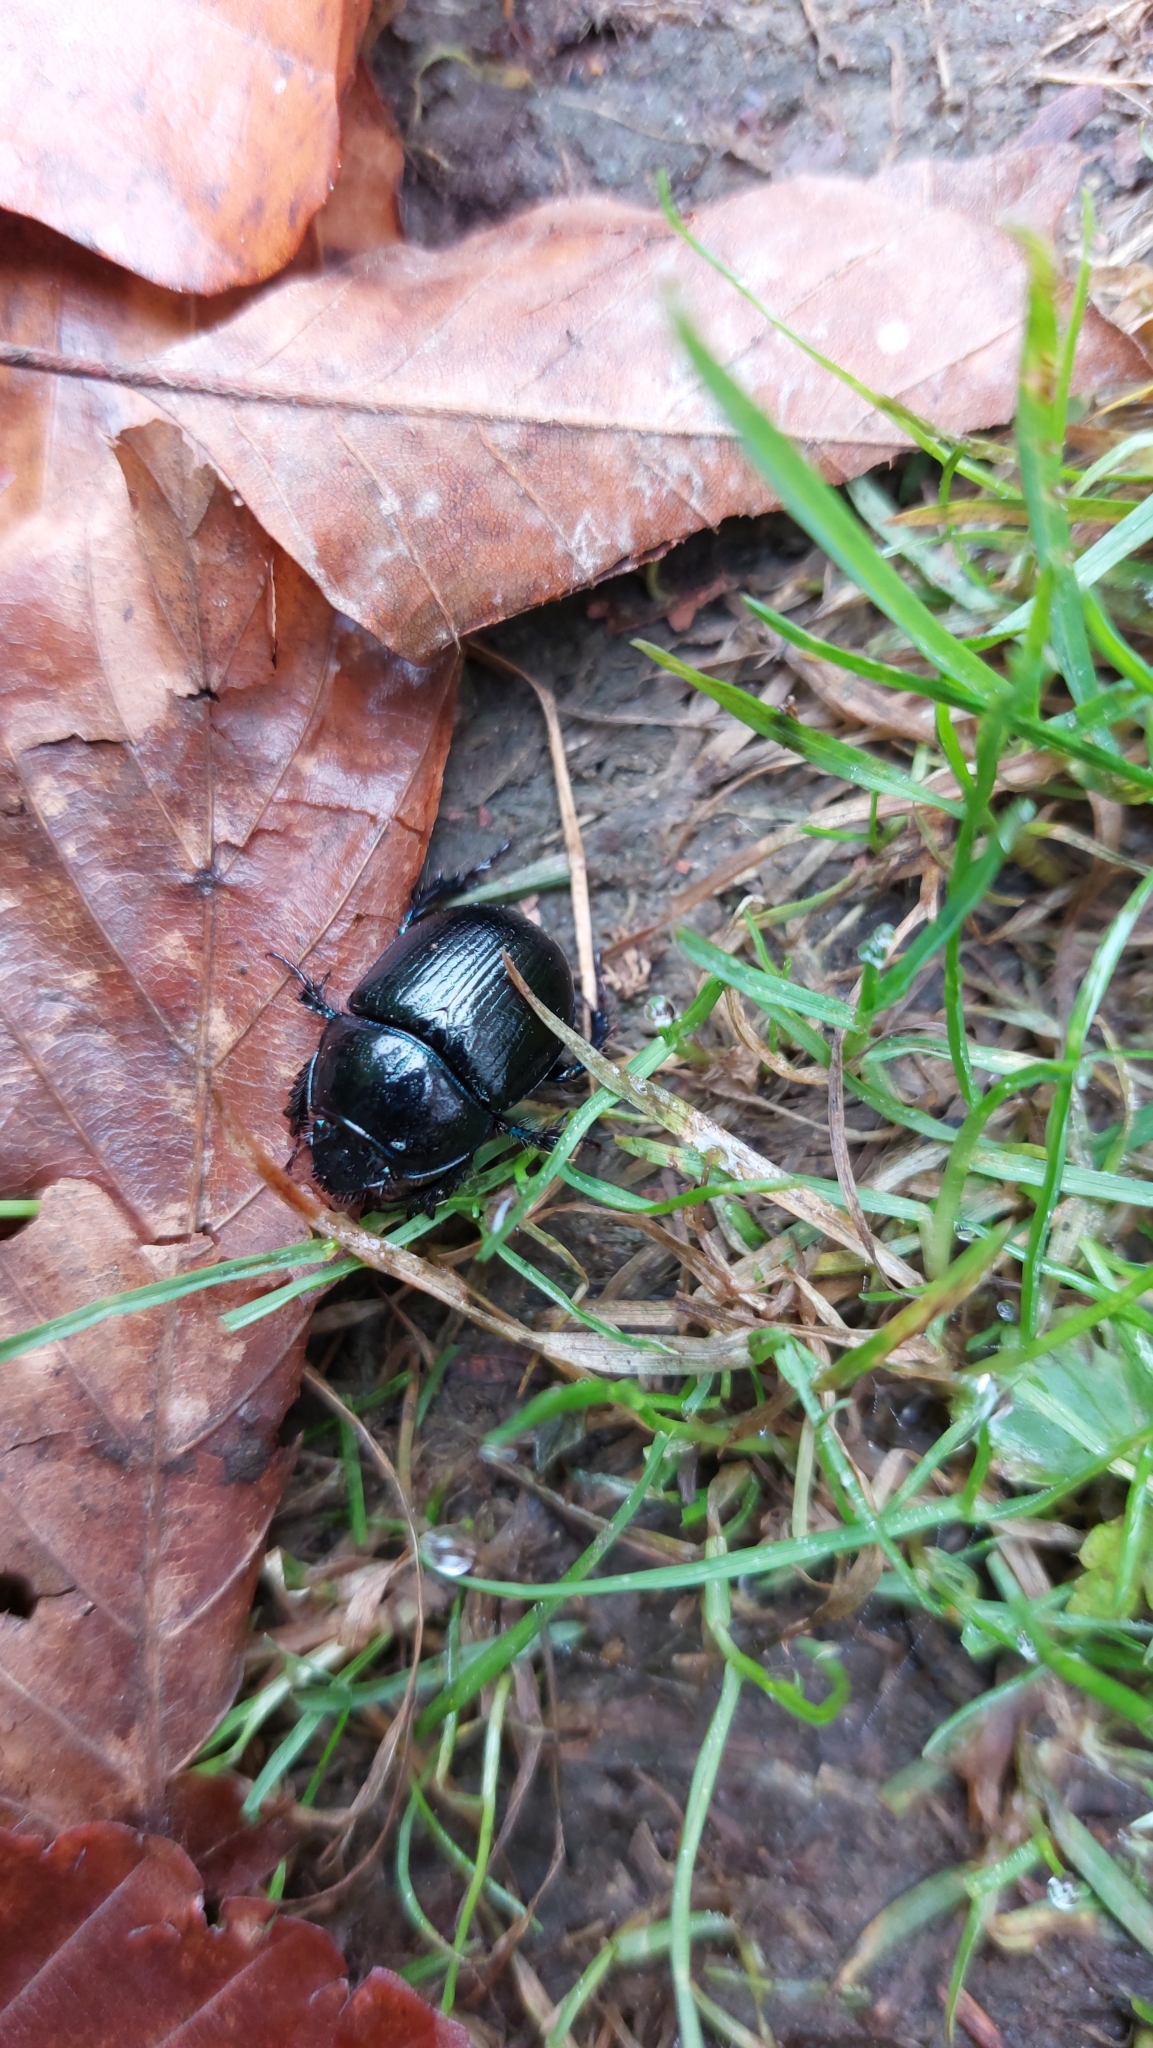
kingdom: Animalia
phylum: Arthropoda
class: Insecta
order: Coleoptera
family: Geotrupidae
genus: Anoplotrupes
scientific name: Anoplotrupes stercorosus
